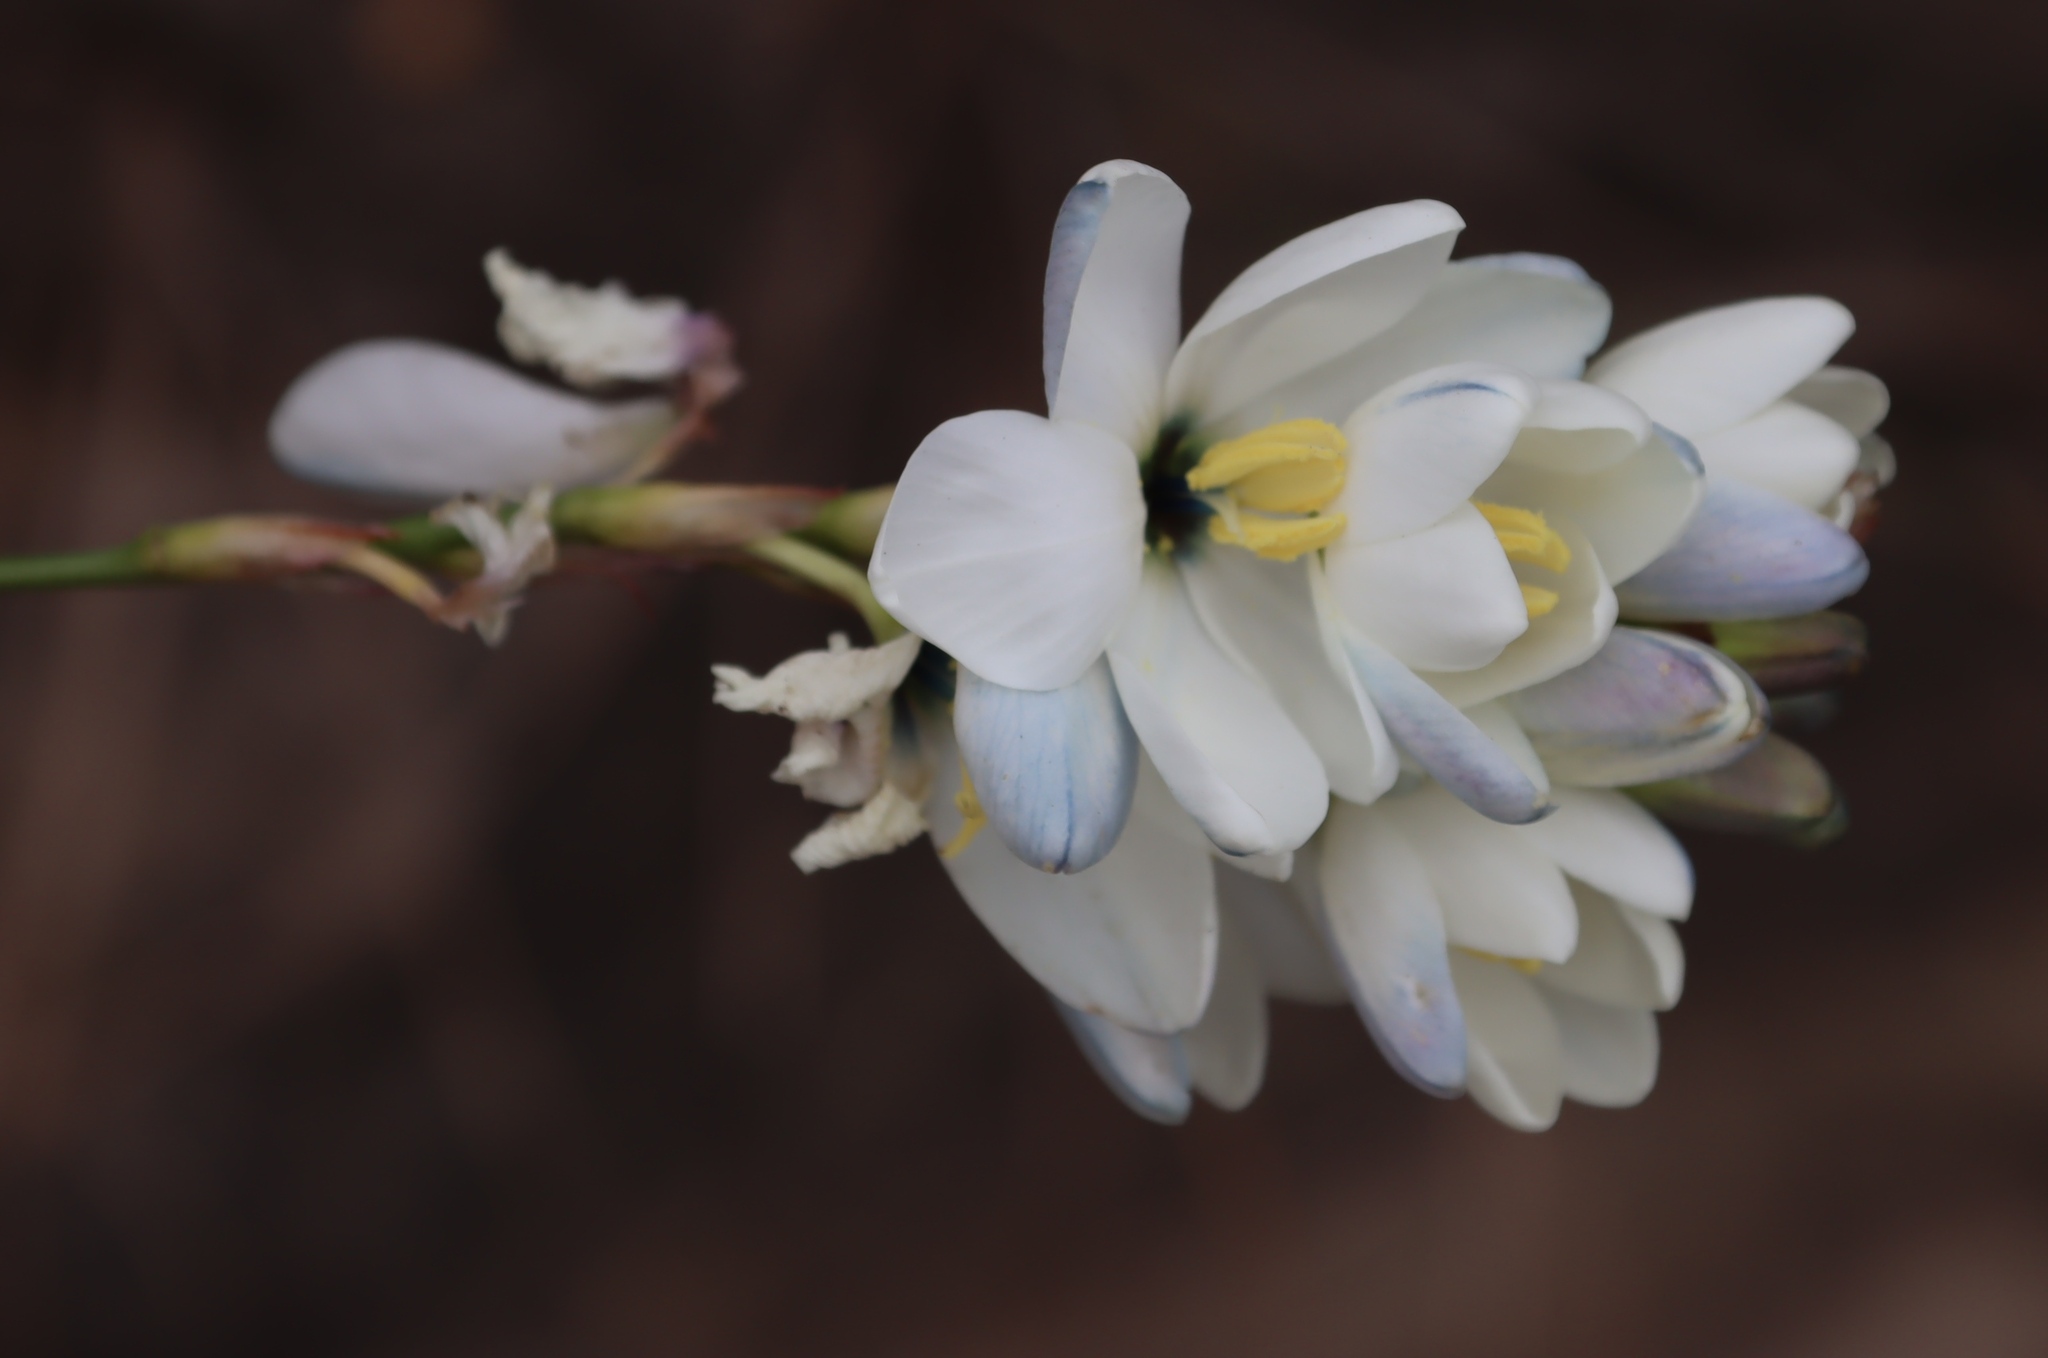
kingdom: Plantae
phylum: Tracheophyta
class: Liliopsida
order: Asparagales
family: Iridaceae
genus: Ixia
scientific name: Ixia polystachya
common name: White-and-yellow-flower cornlily
